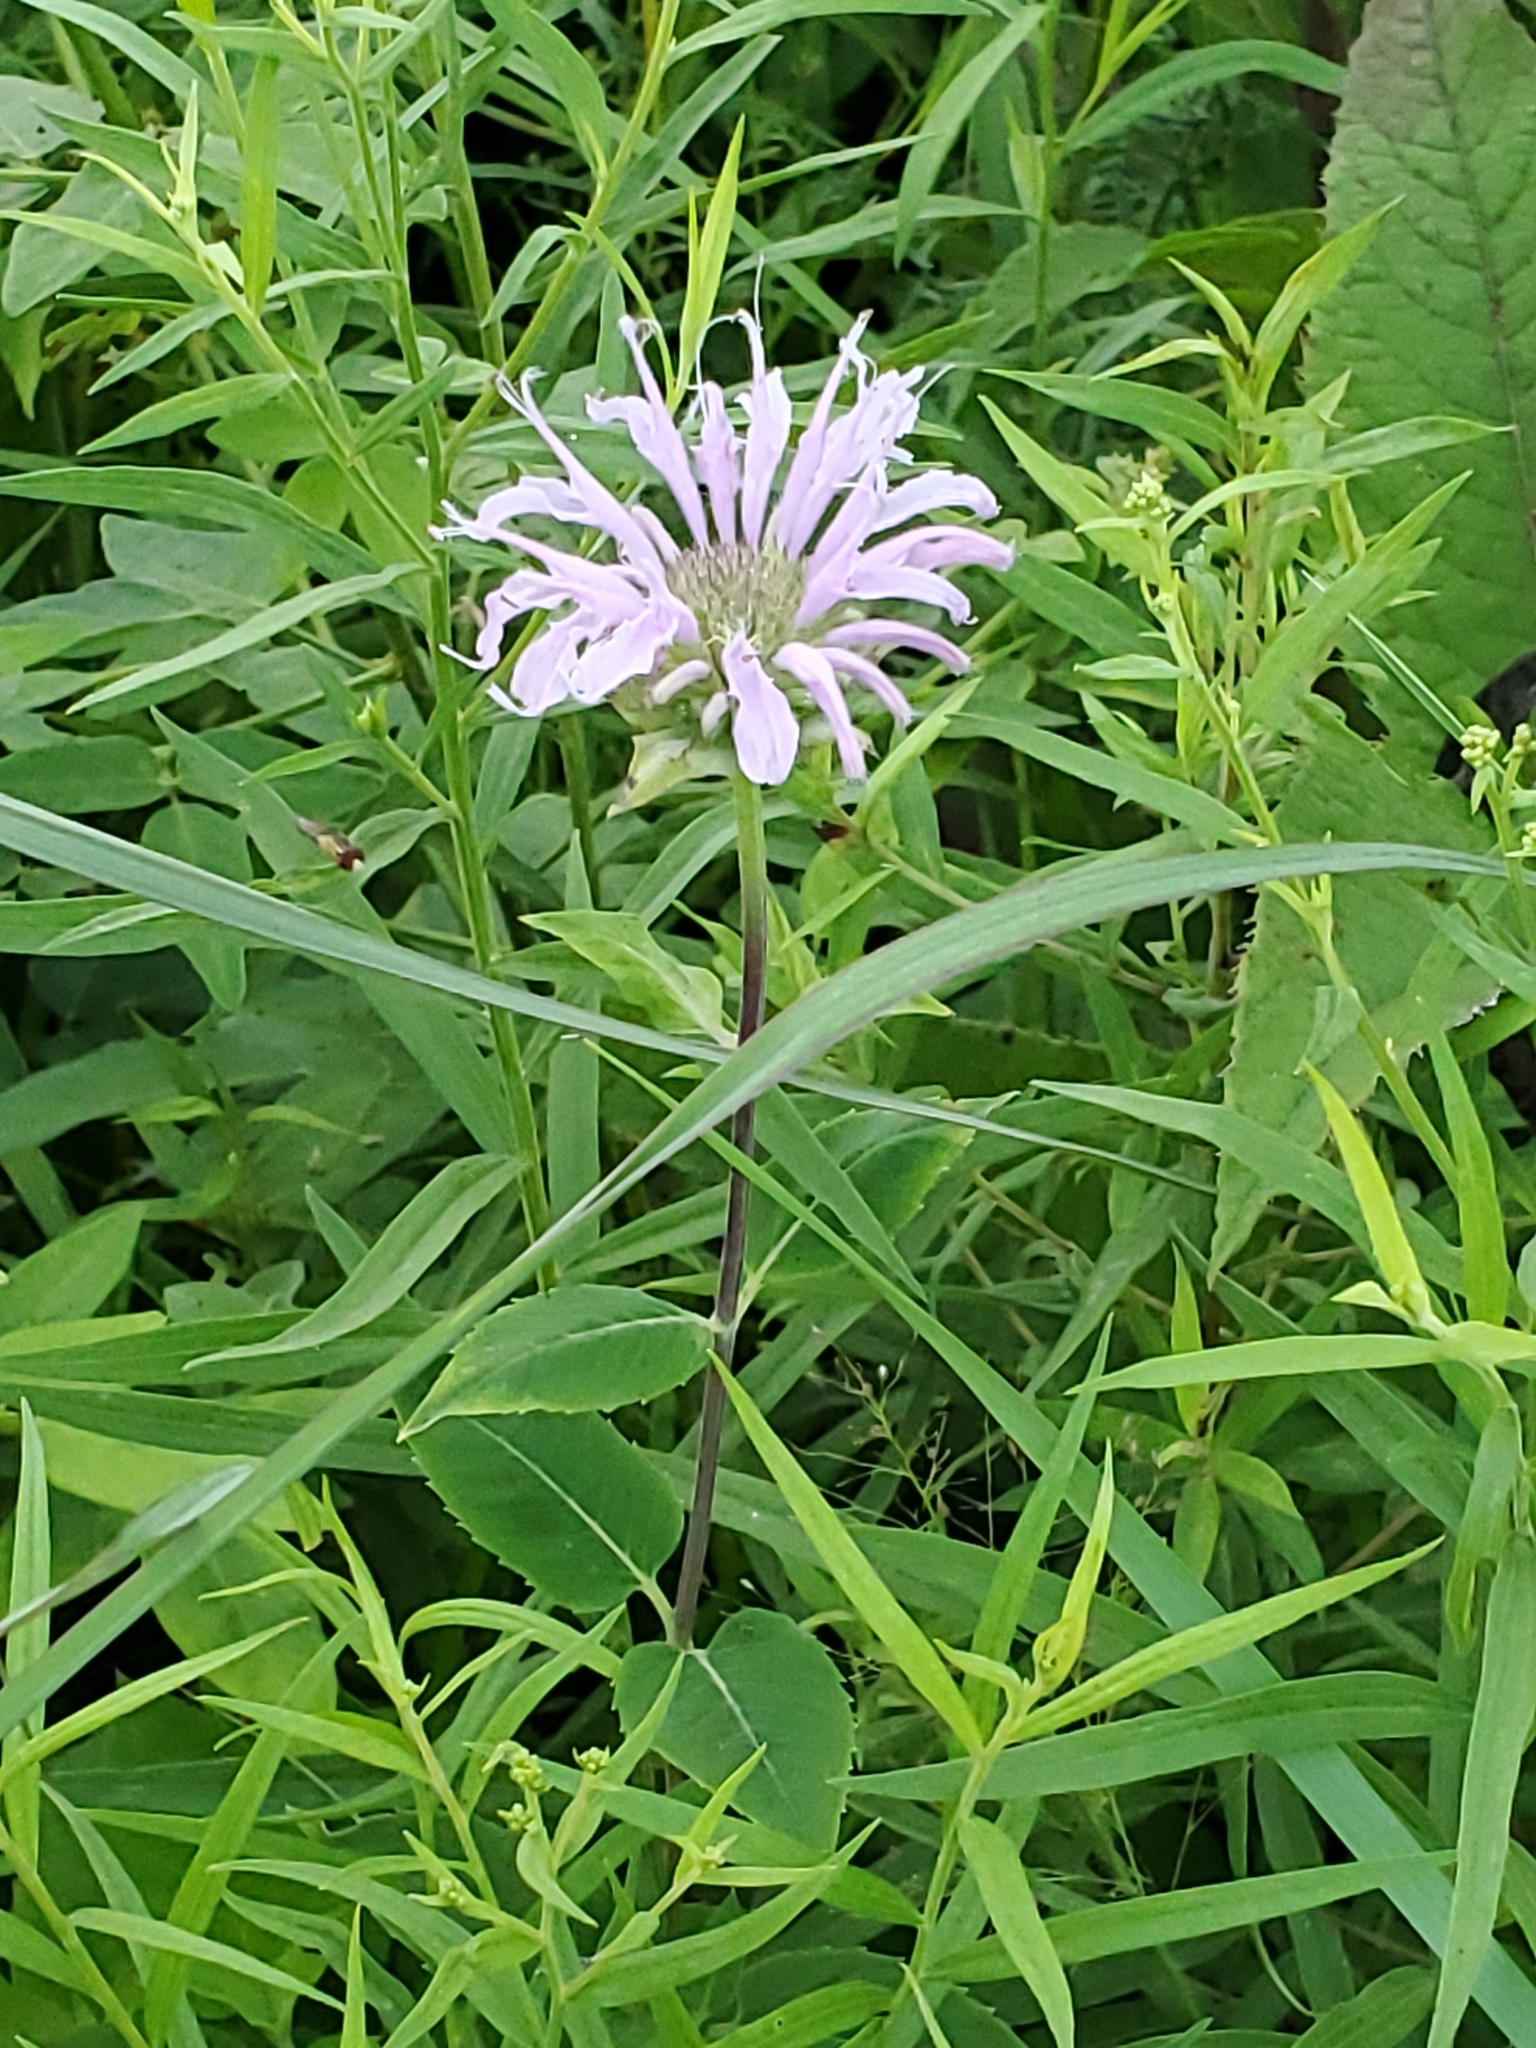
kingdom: Plantae
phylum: Tracheophyta
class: Magnoliopsida
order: Lamiales
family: Lamiaceae
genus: Monarda
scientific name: Monarda fistulosa
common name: Purple beebalm
